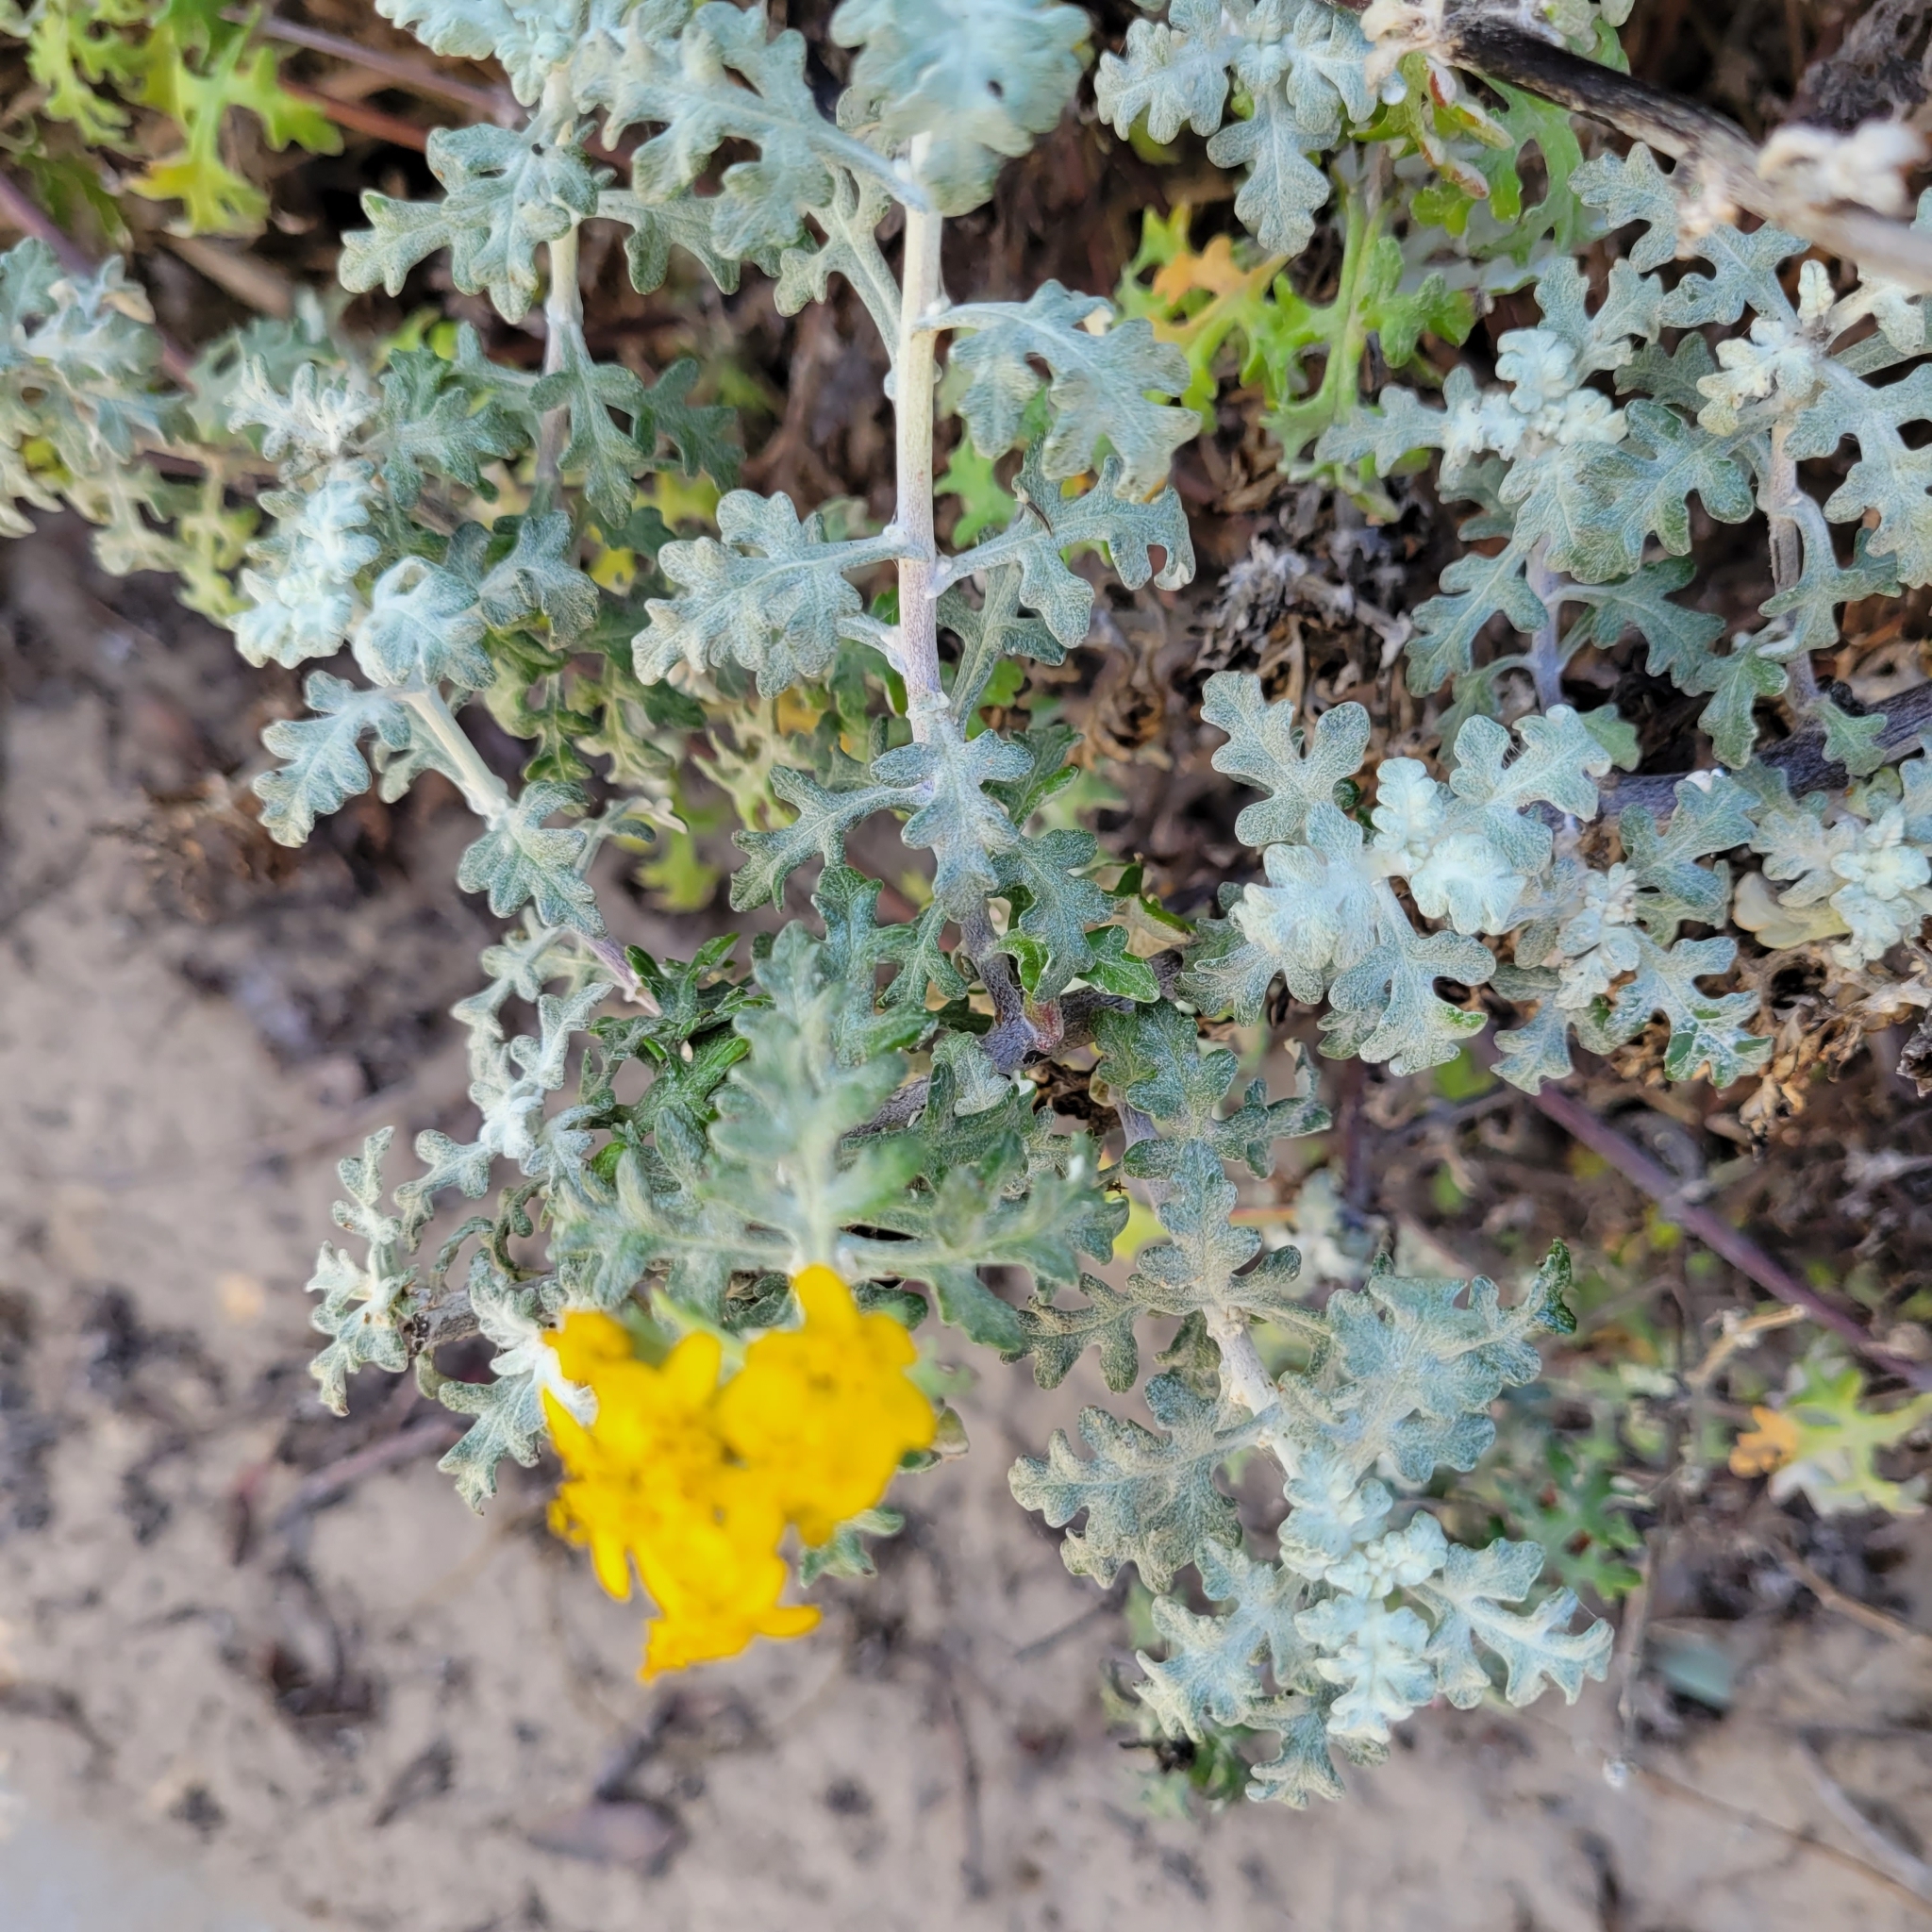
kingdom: Plantae
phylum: Tracheophyta
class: Magnoliopsida
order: Asterales
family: Asteraceae
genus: Eriophyllum
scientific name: Eriophyllum staechadifolium
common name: Lizardtail
